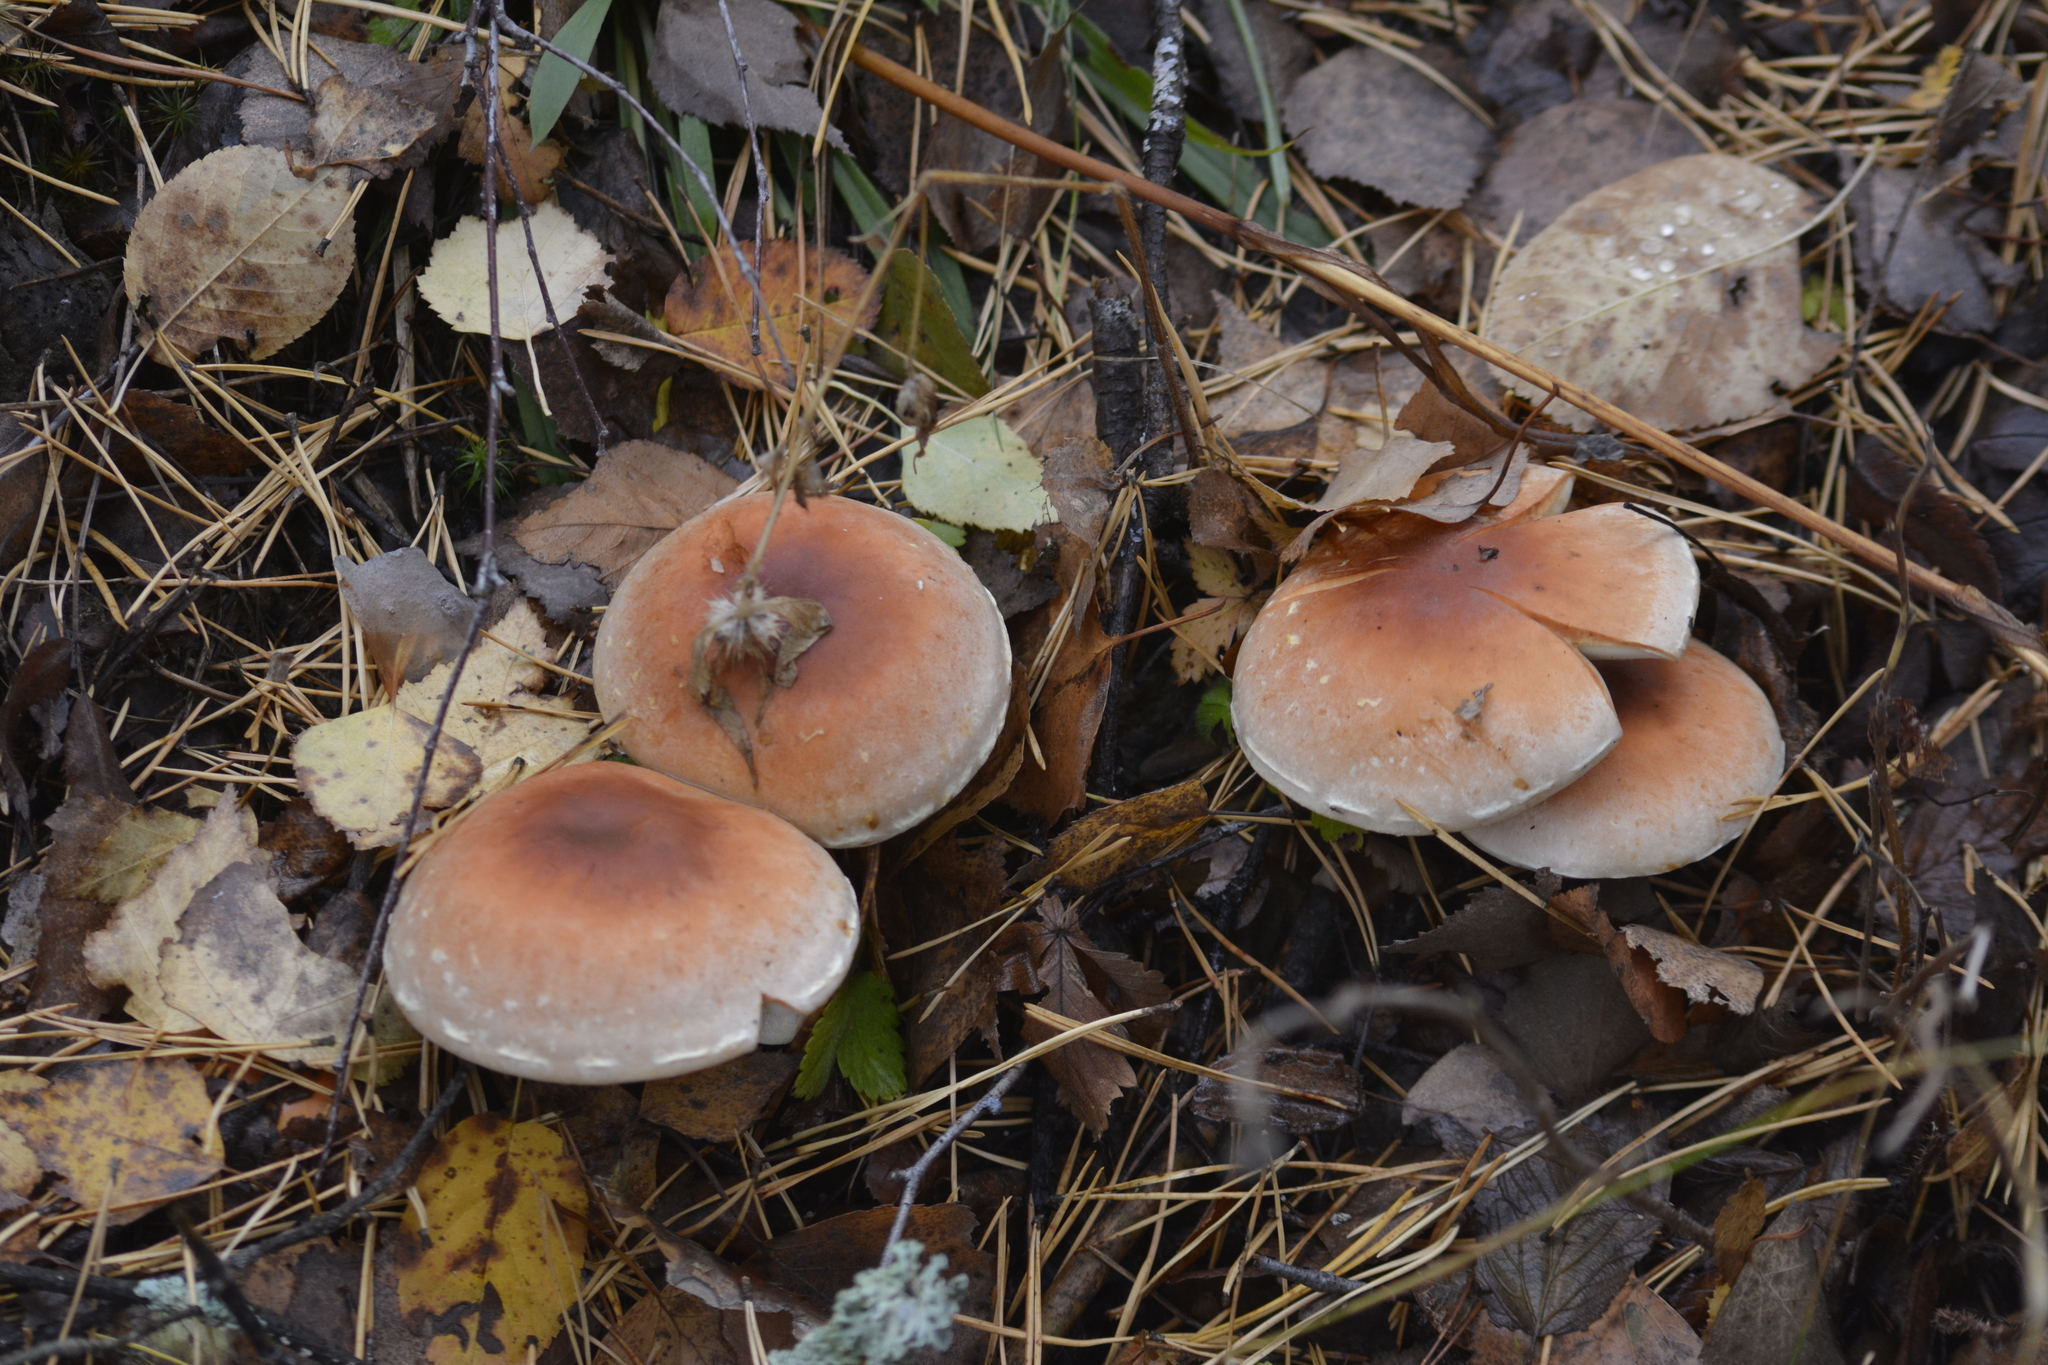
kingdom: Fungi
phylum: Basidiomycota
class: Agaricomycetes
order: Agaricales
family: Strophariaceae
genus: Hypholoma
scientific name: Hypholoma lateritium
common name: Brick caps
